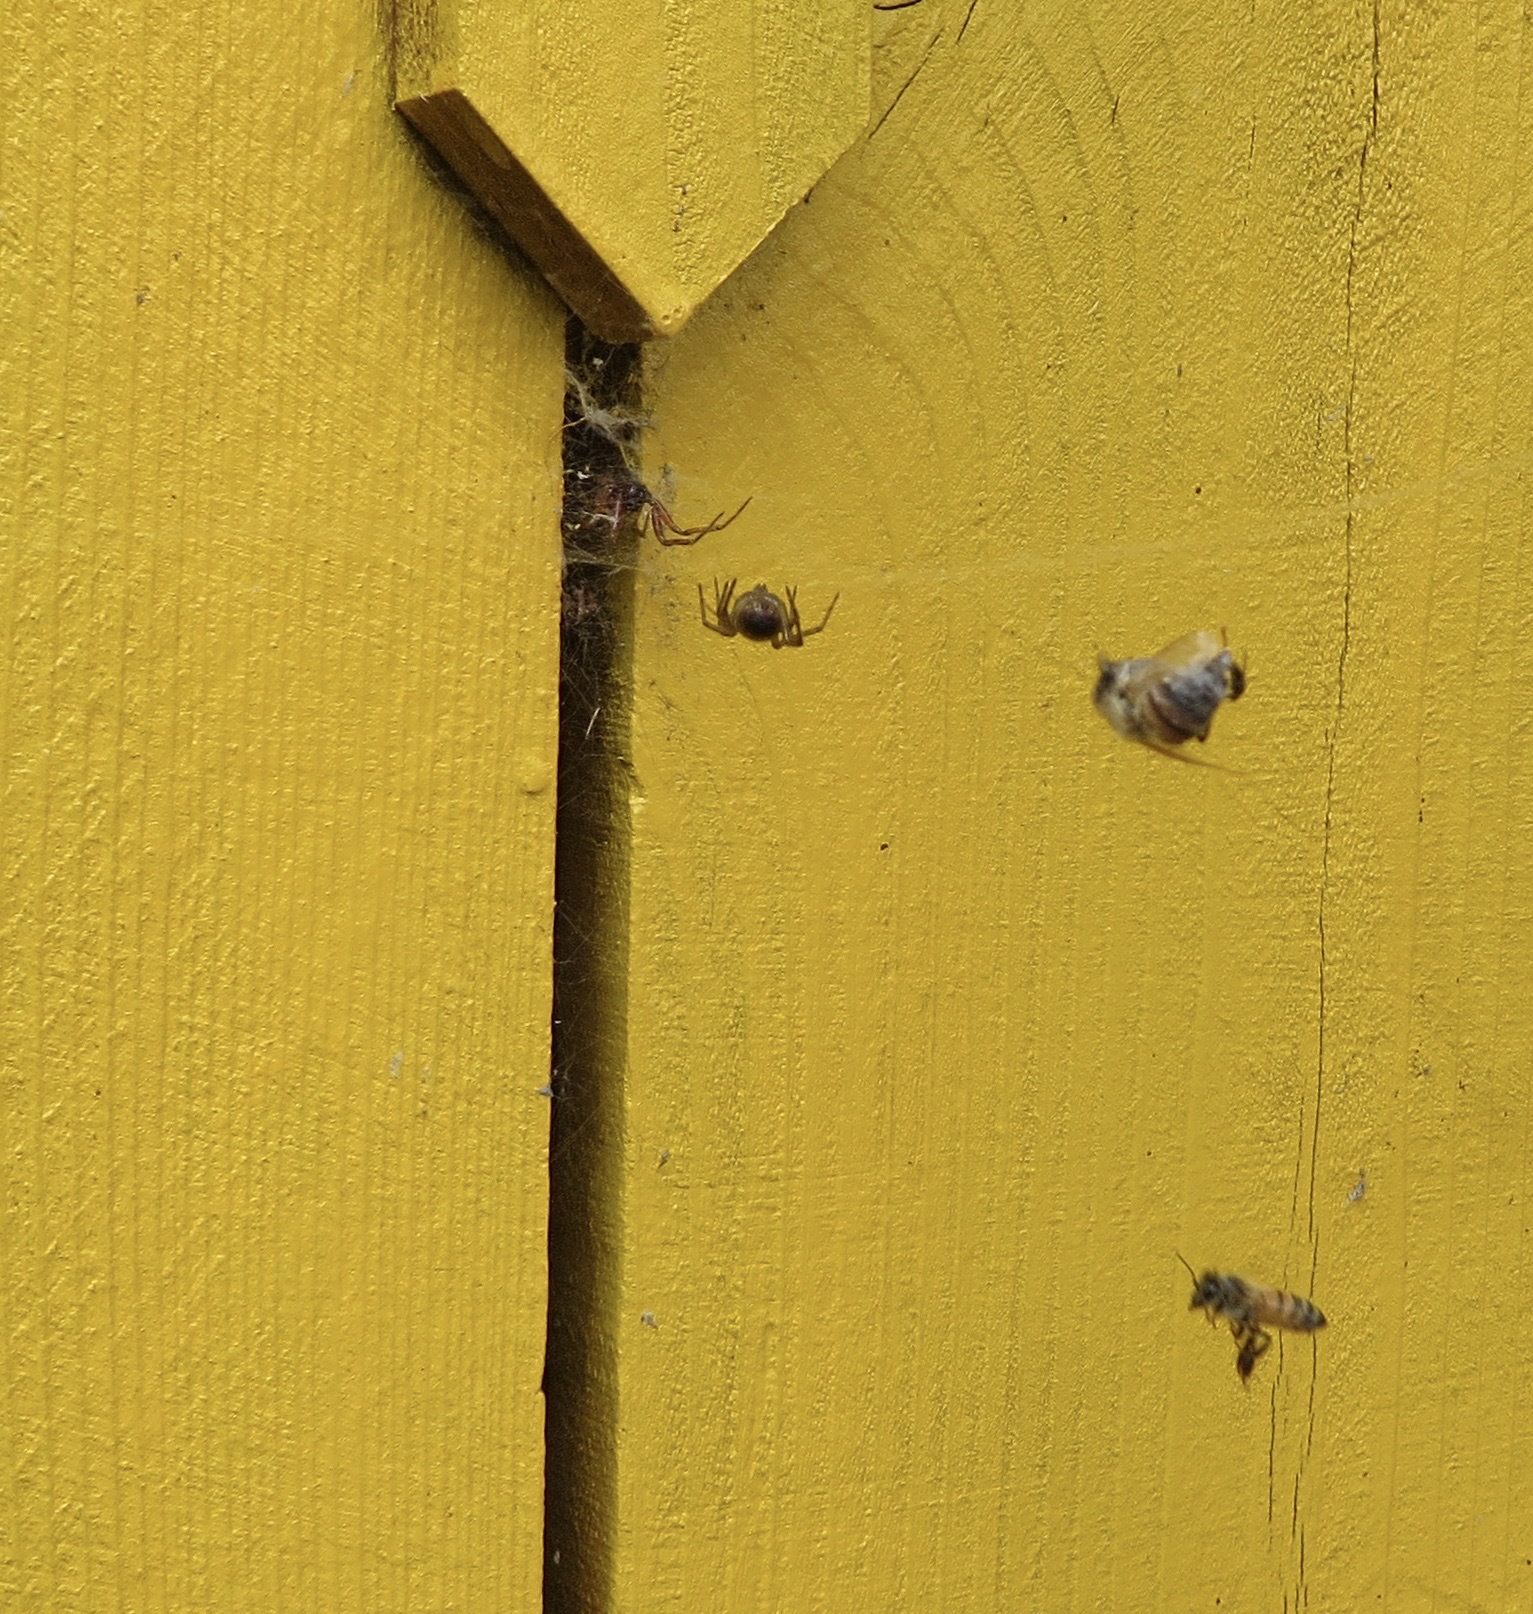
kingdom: Animalia
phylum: Arthropoda
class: Insecta
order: Hymenoptera
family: Apidae
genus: Apis
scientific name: Apis mellifera
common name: Honey bee
